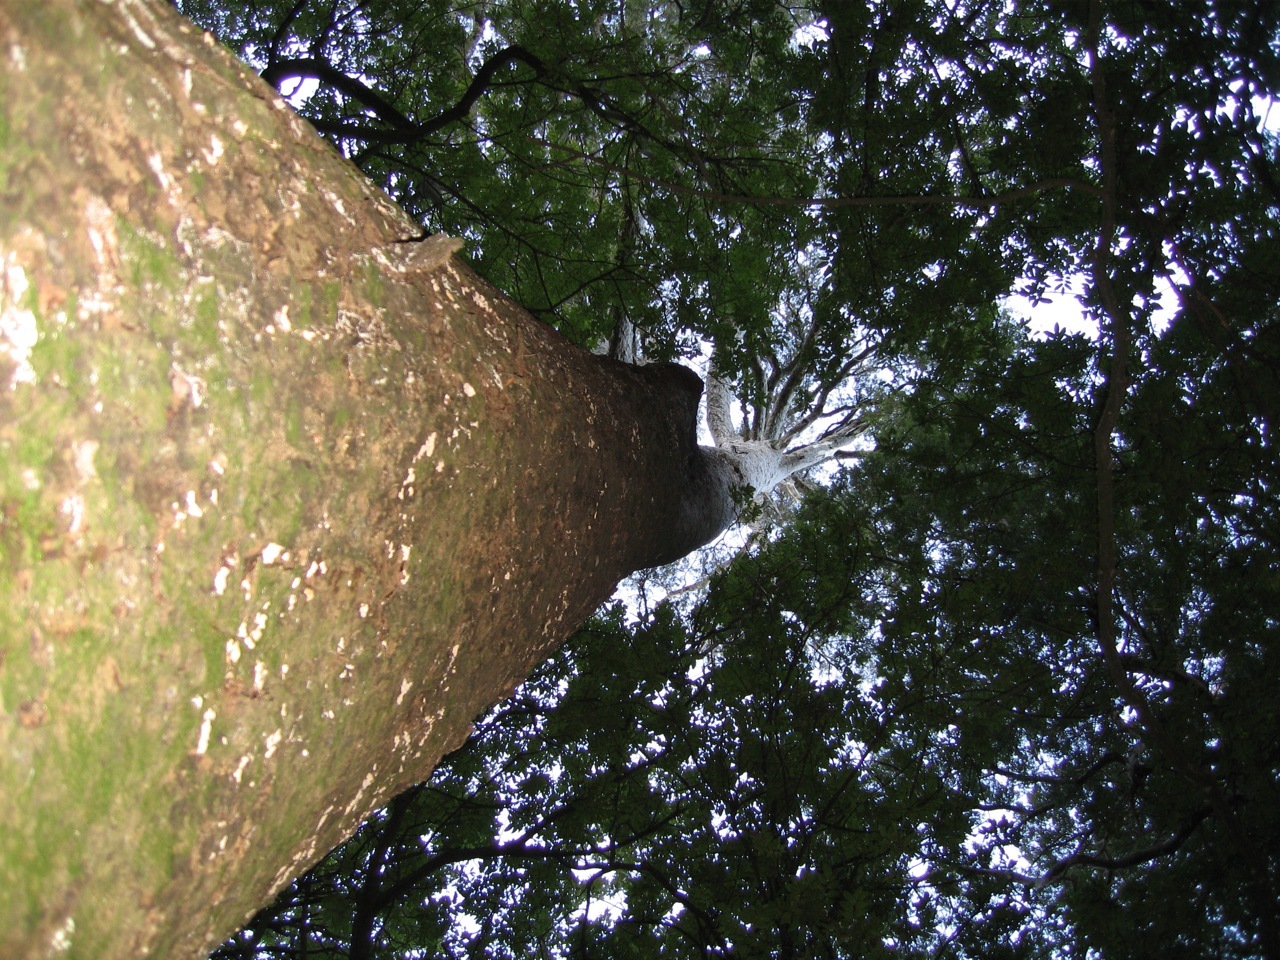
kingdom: Plantae
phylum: Tracheophyta
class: Pinopsida
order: Pinales
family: Podocarpaceae
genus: Prumnopitys
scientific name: Prumnopitys taxifolia
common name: Matai
